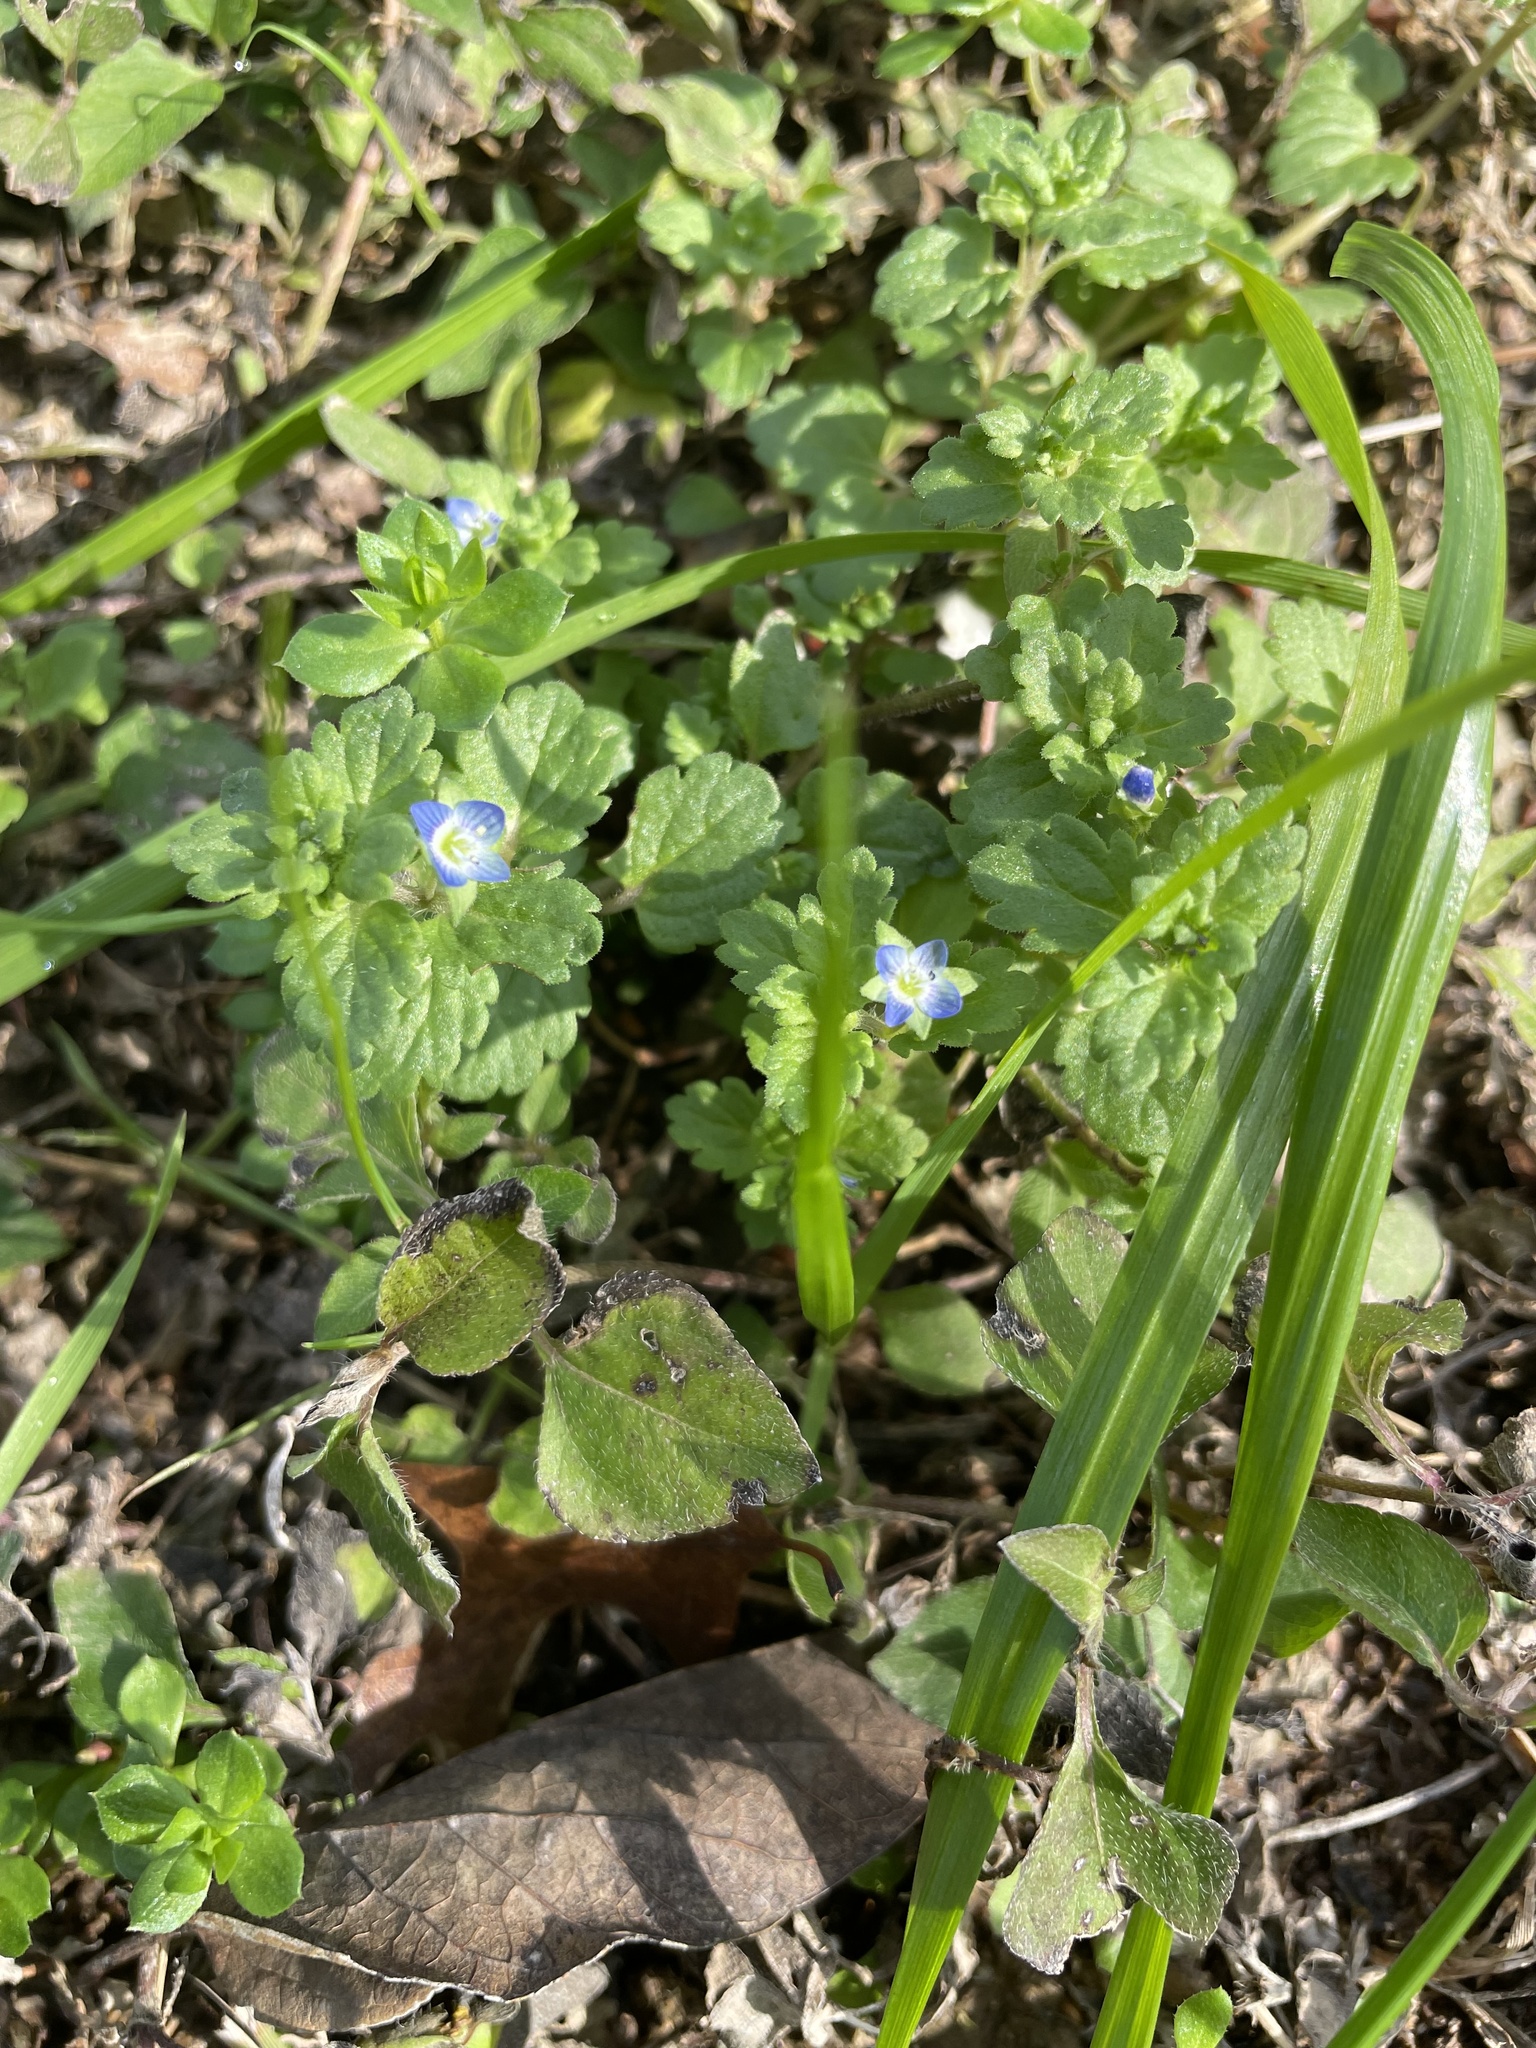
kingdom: Plantae
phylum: Tracheophyta
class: Magnoliopsida
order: Lamiales
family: Plantaginaceae
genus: Veronica
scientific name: Veronica polita
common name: Grey field-speedwell
